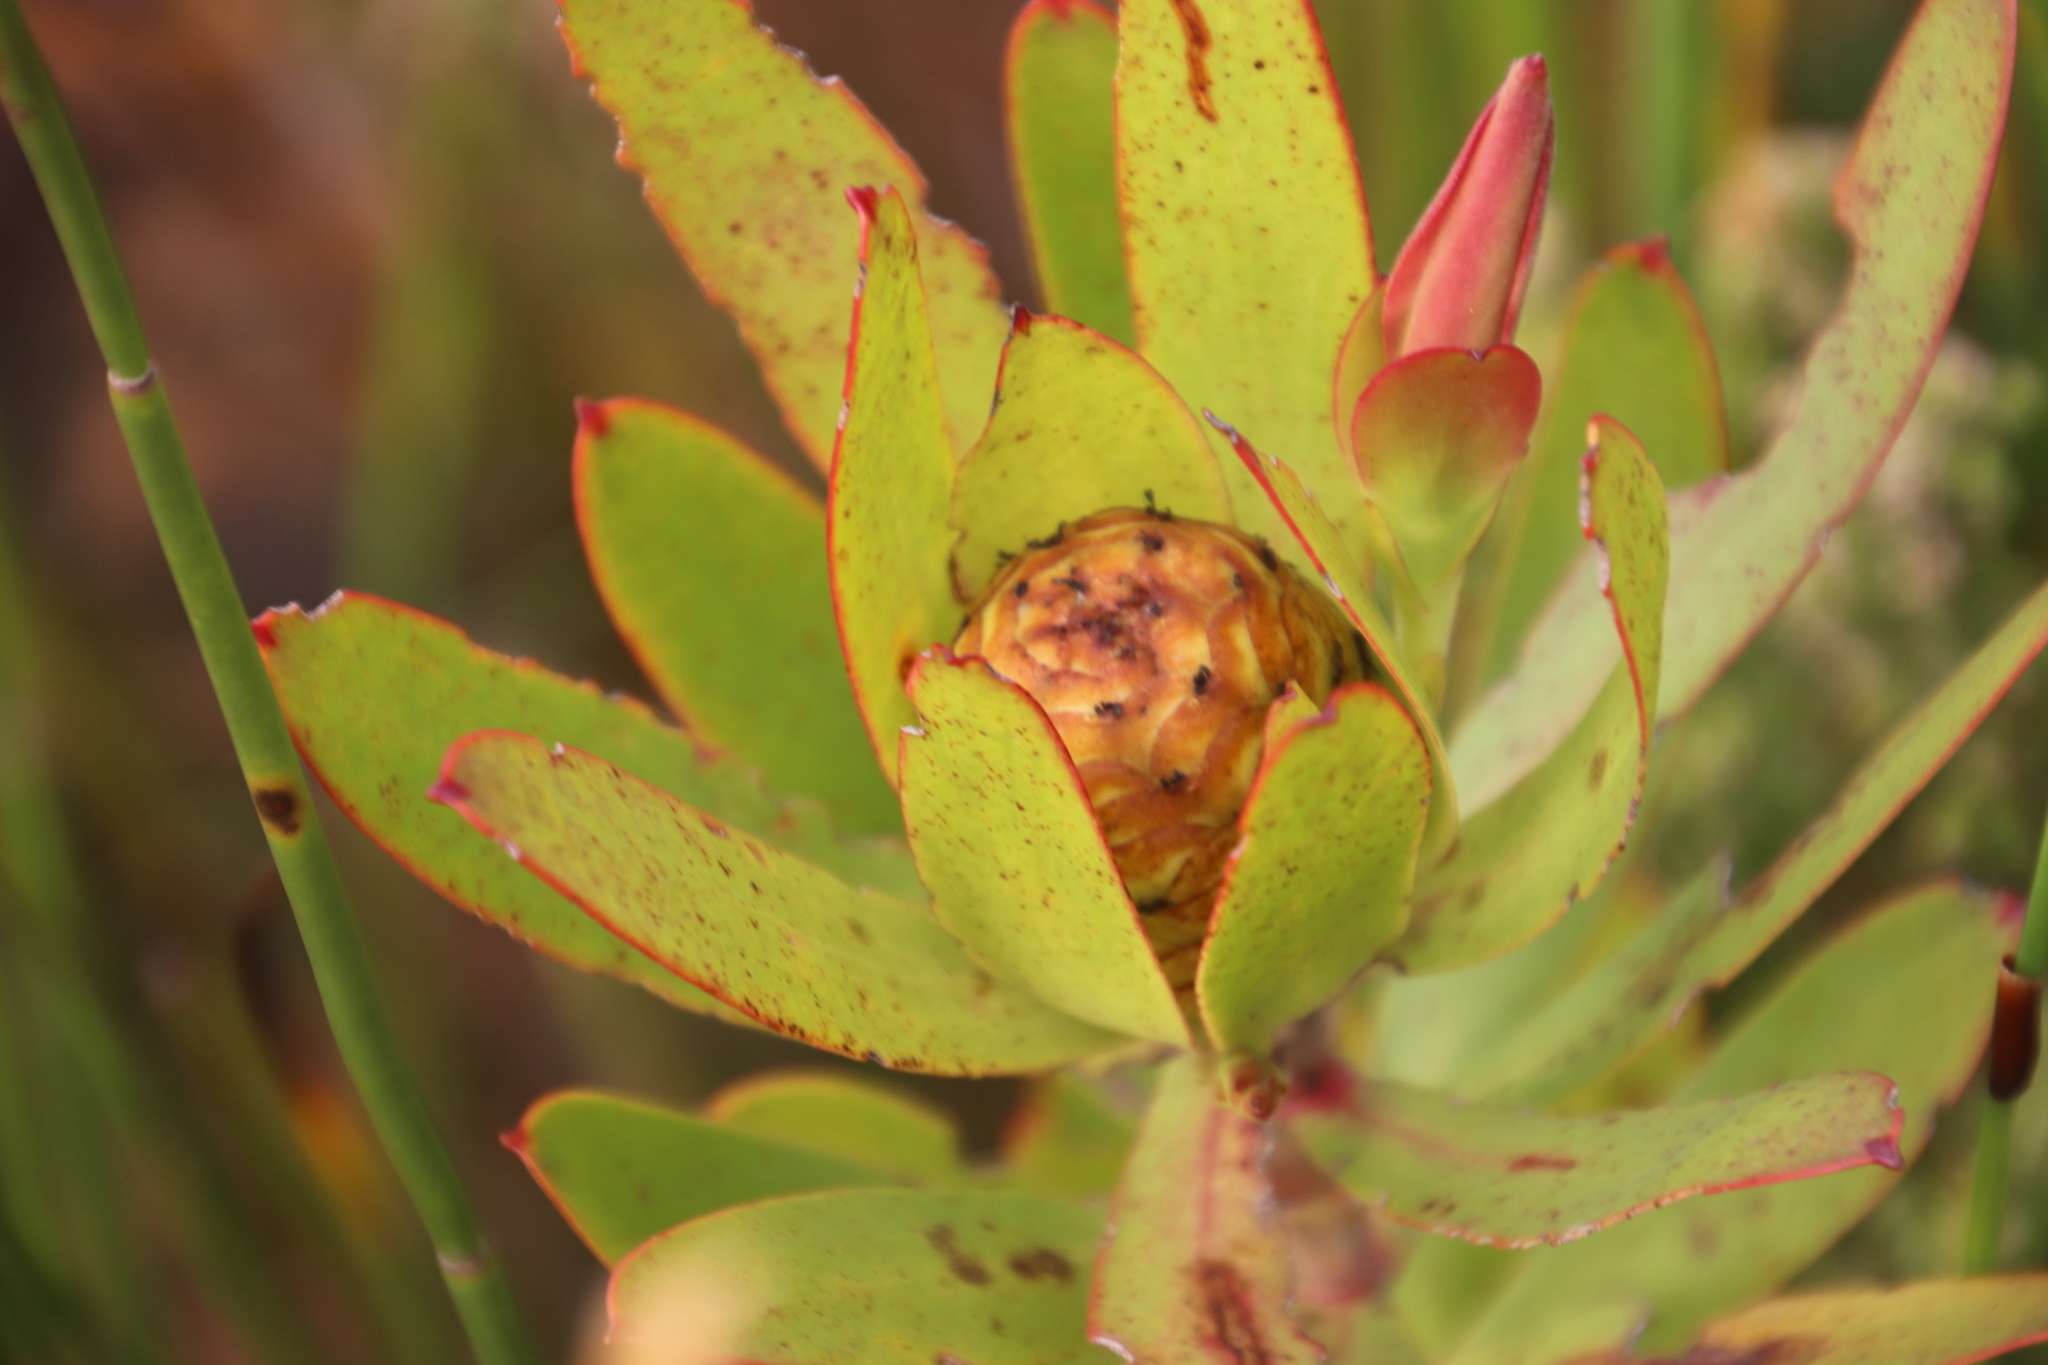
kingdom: Plantae
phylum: Tracheophyta
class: Magnoliopsida
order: Proteales
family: Proteaceae
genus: Leucadendron
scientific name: Leucadendron gandogeri
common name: Broad-leaf conebush
